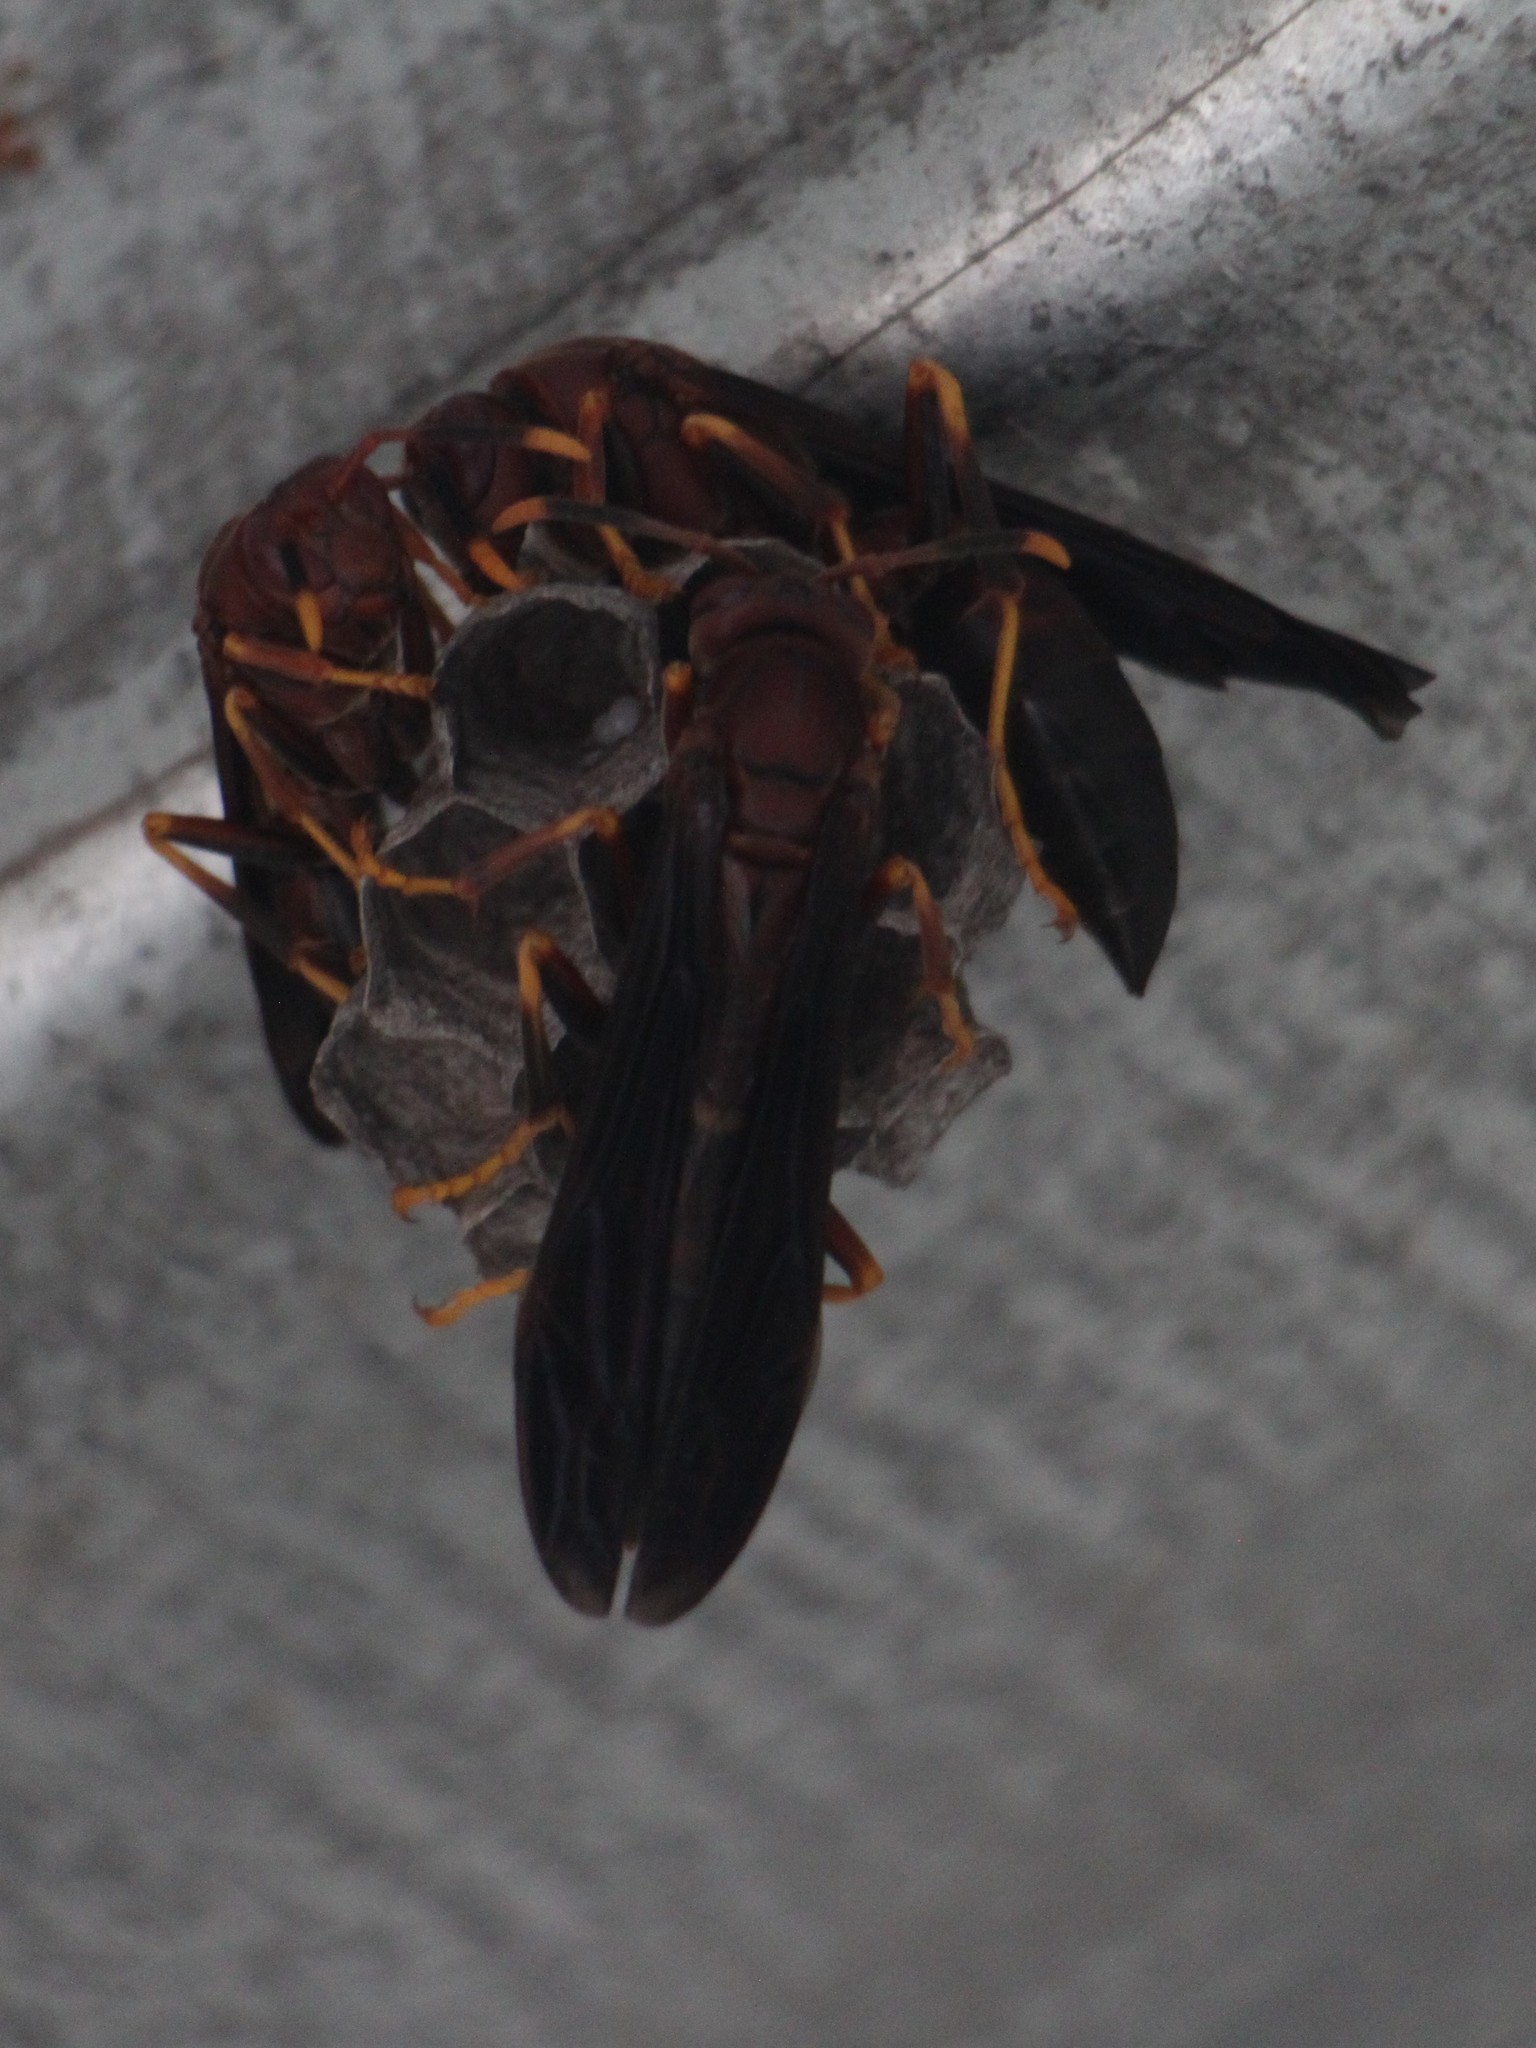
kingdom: Animalia
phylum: Arthropoda
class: Insecta
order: Hymenoptera
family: Eumenidae
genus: Polistes
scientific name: Polistes annularis
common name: Ringed paper wasp
